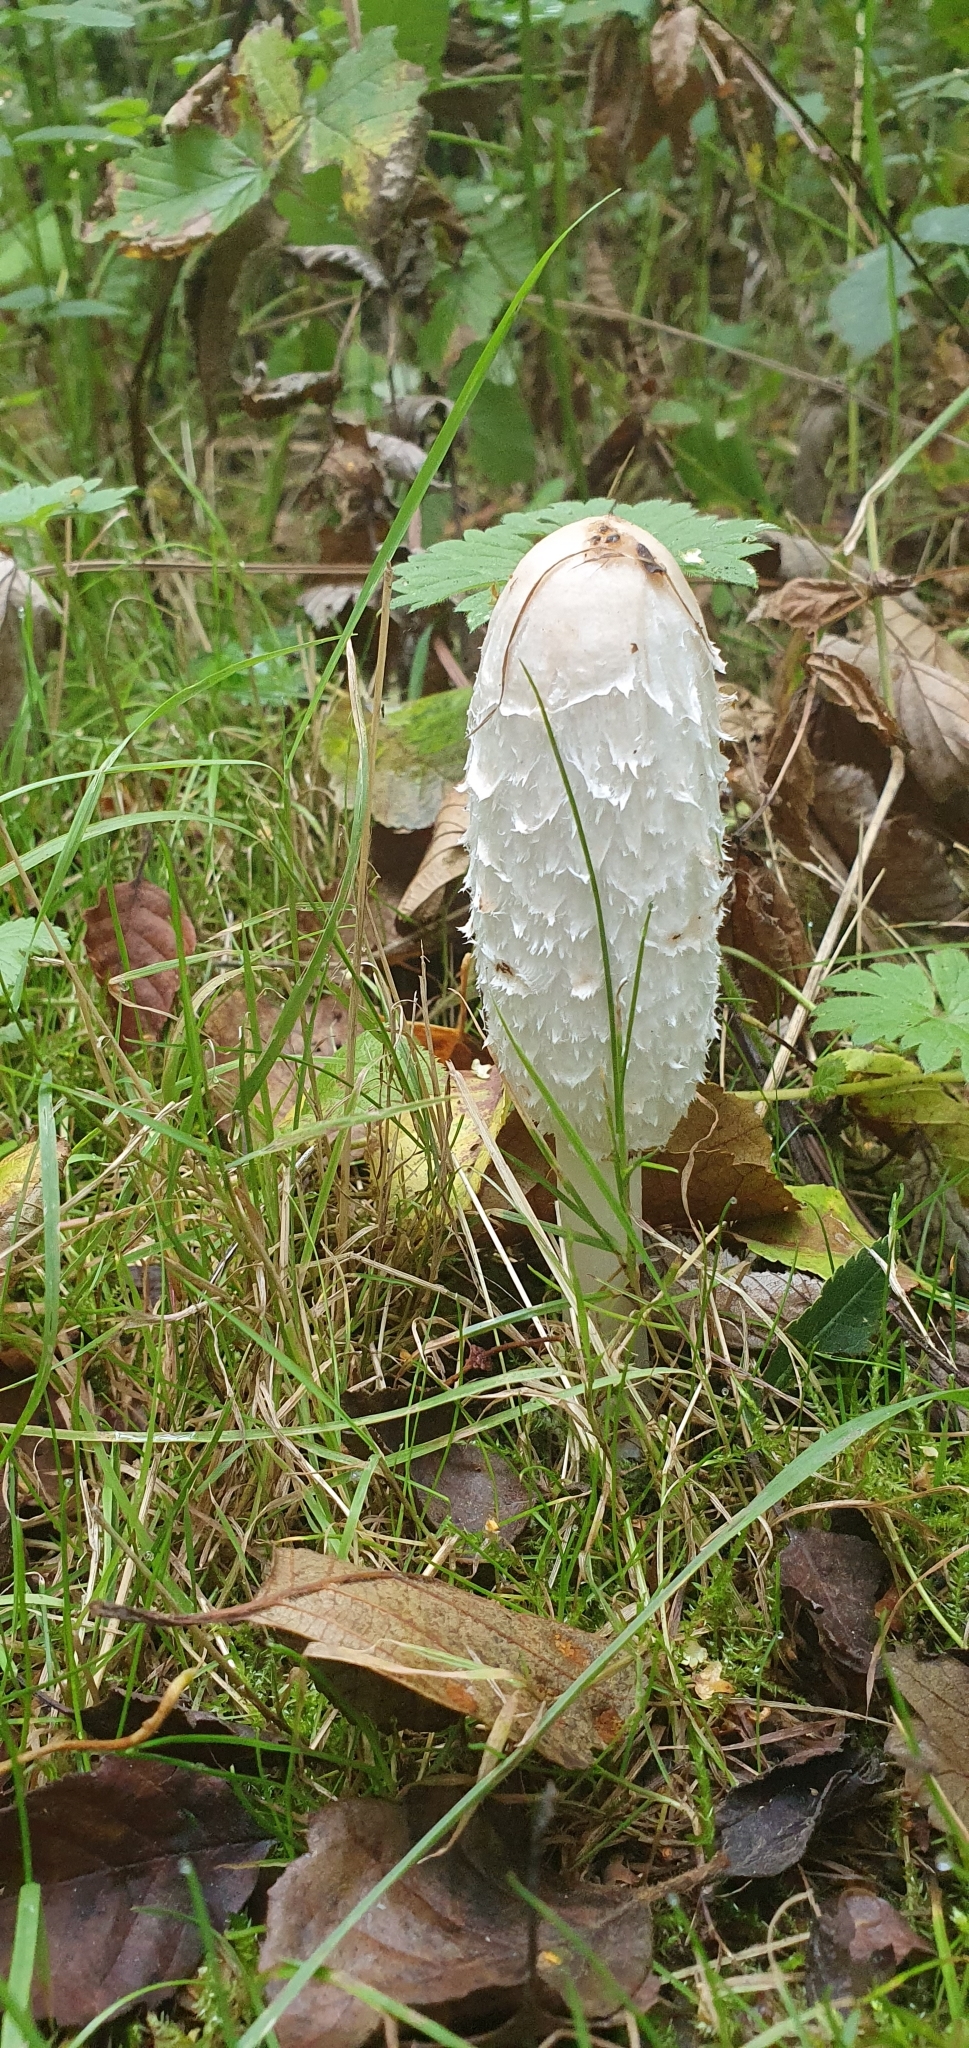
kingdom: Fungi
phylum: Basidiomycota
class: Agaricomycetes
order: Agaricales
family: Agaricaceae
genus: Coprinus
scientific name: Coprinus comatus
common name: Lawyer's wig
